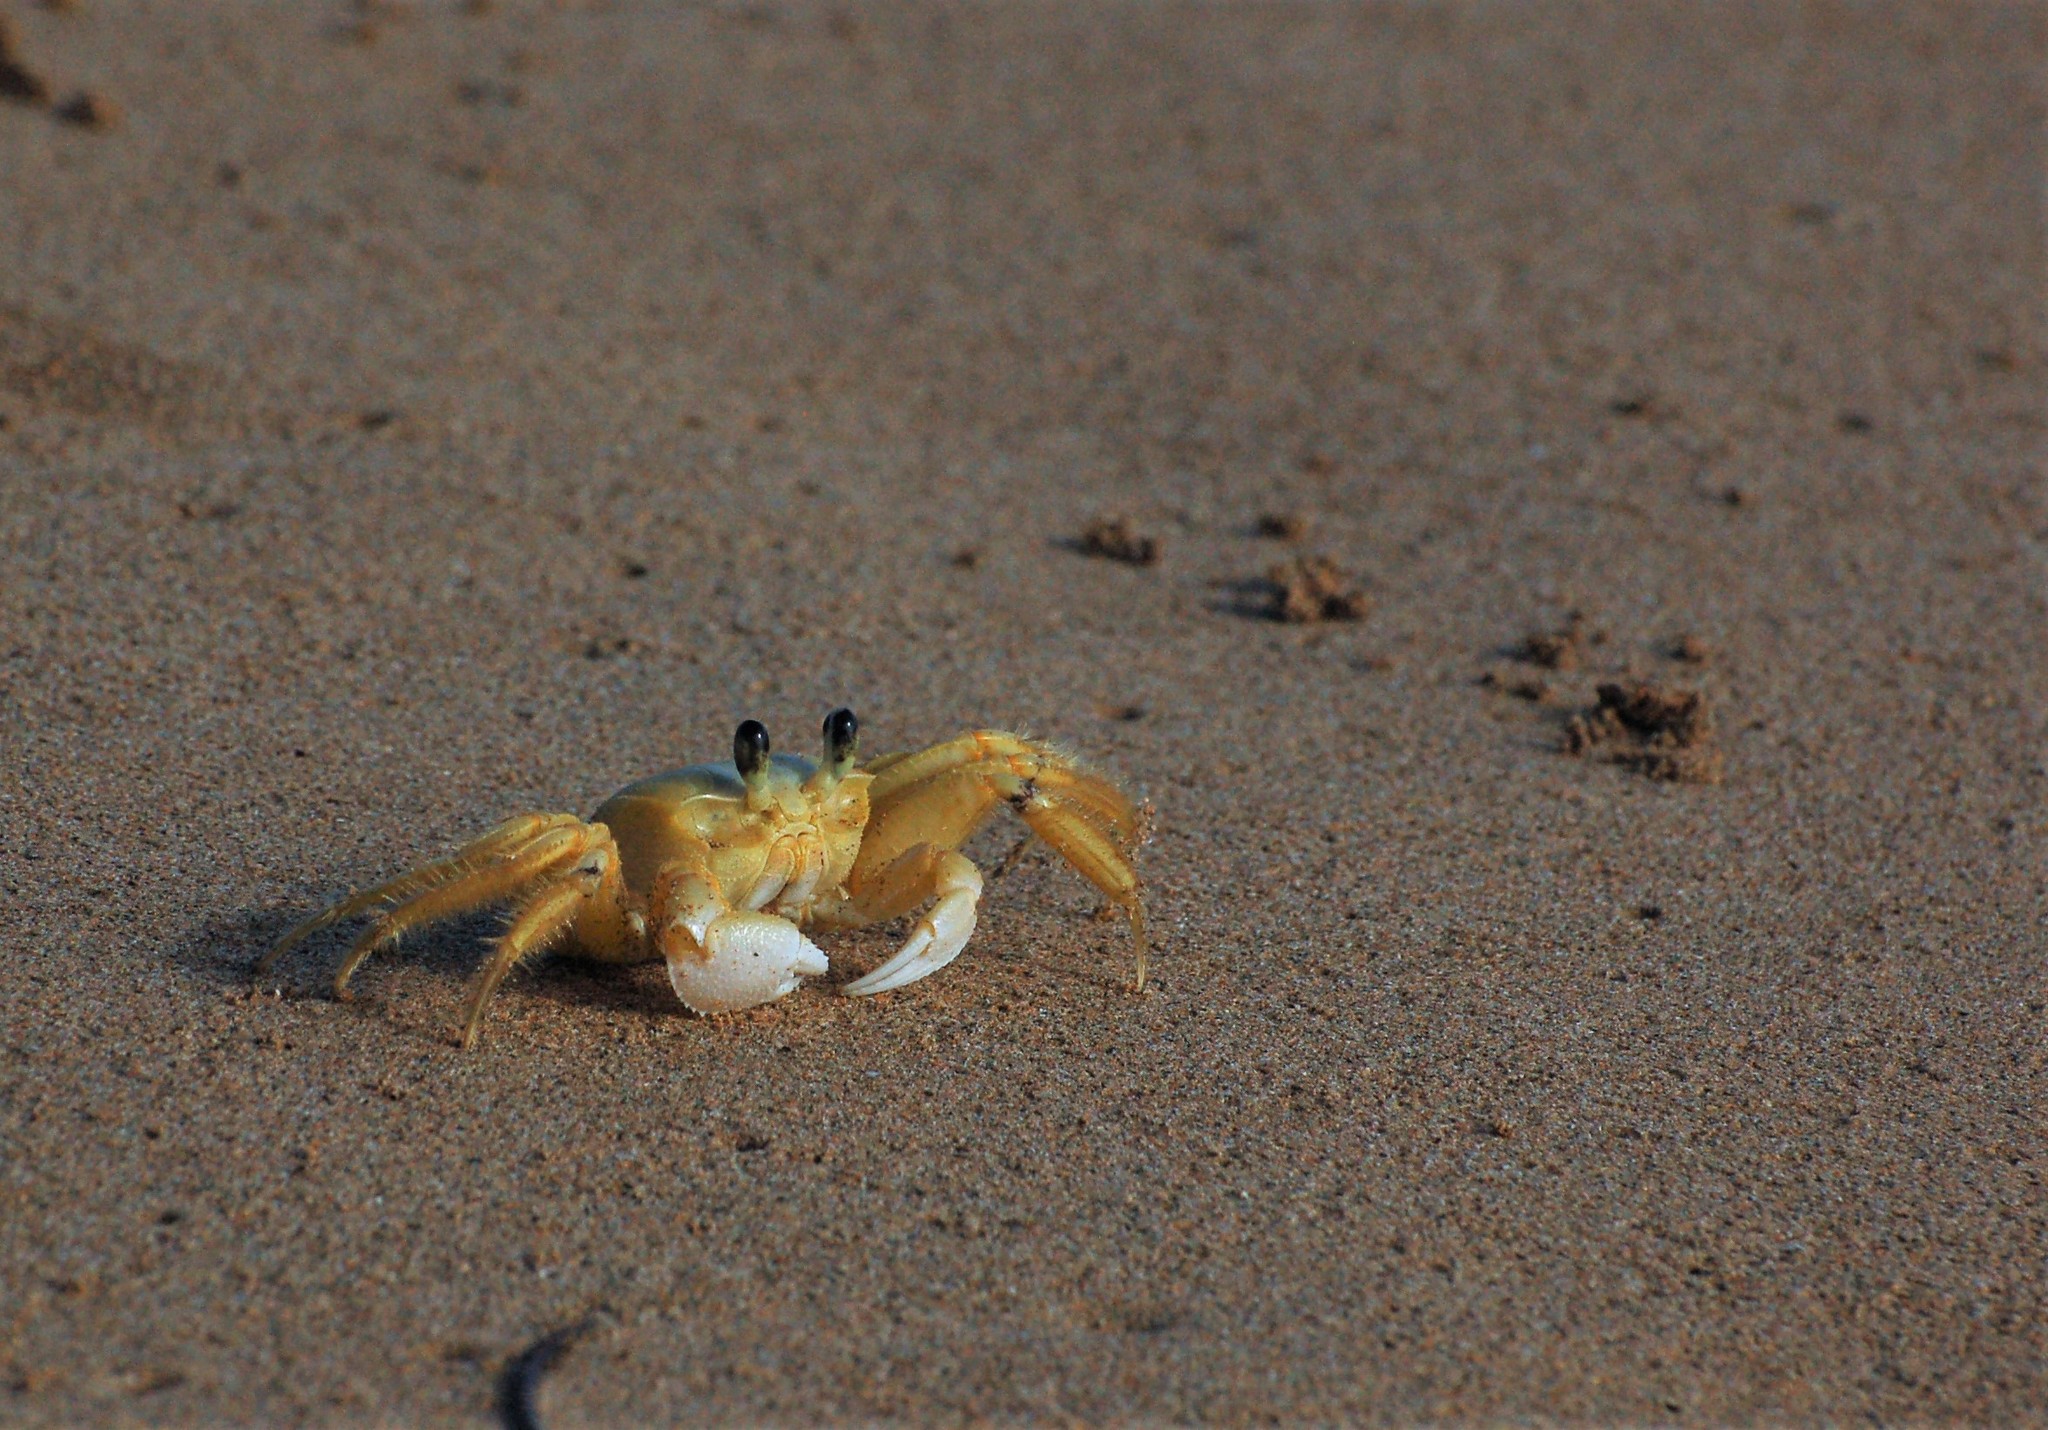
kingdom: Animalia
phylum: Arthropoda
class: Malacostraca
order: Decapoda
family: Ocypodidae
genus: Ocypode
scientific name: Ocypode quadrata
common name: Ghost crab
